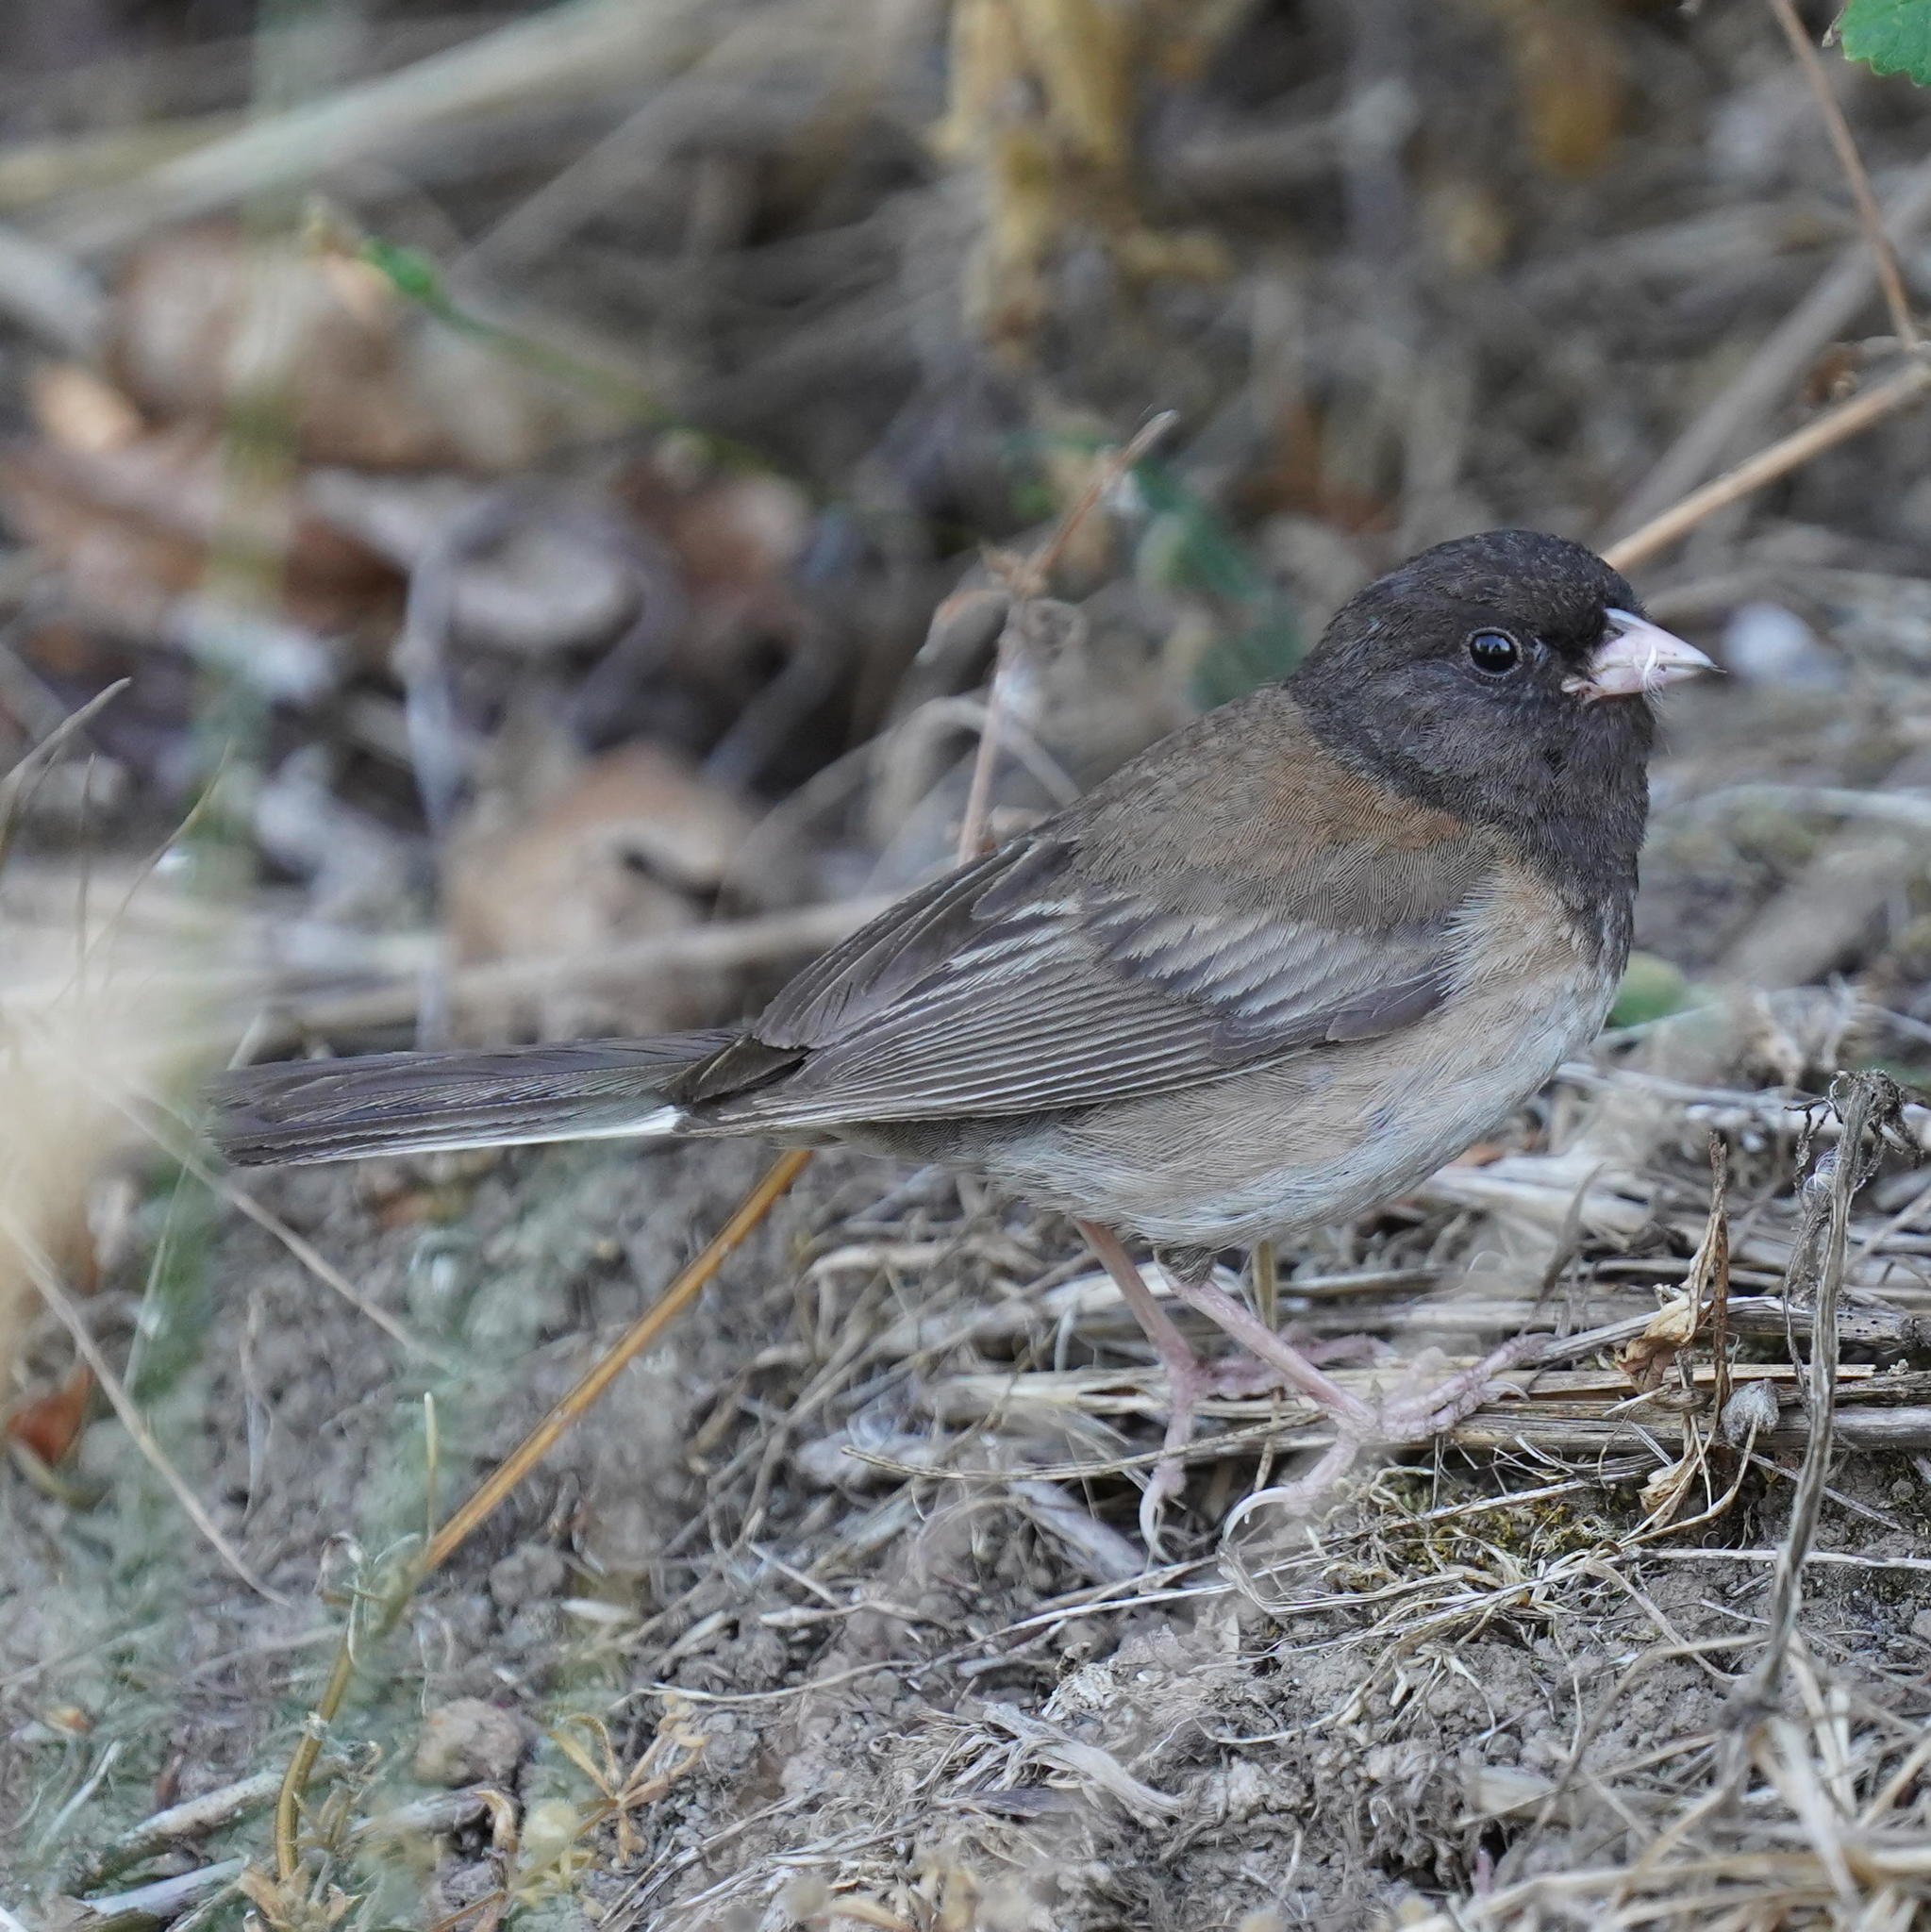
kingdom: Animalia
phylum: Chordata
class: Aves
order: Passeriformes
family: Passerellidae
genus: Junco
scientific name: Junco hyemalis
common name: Dark-eyed junco
